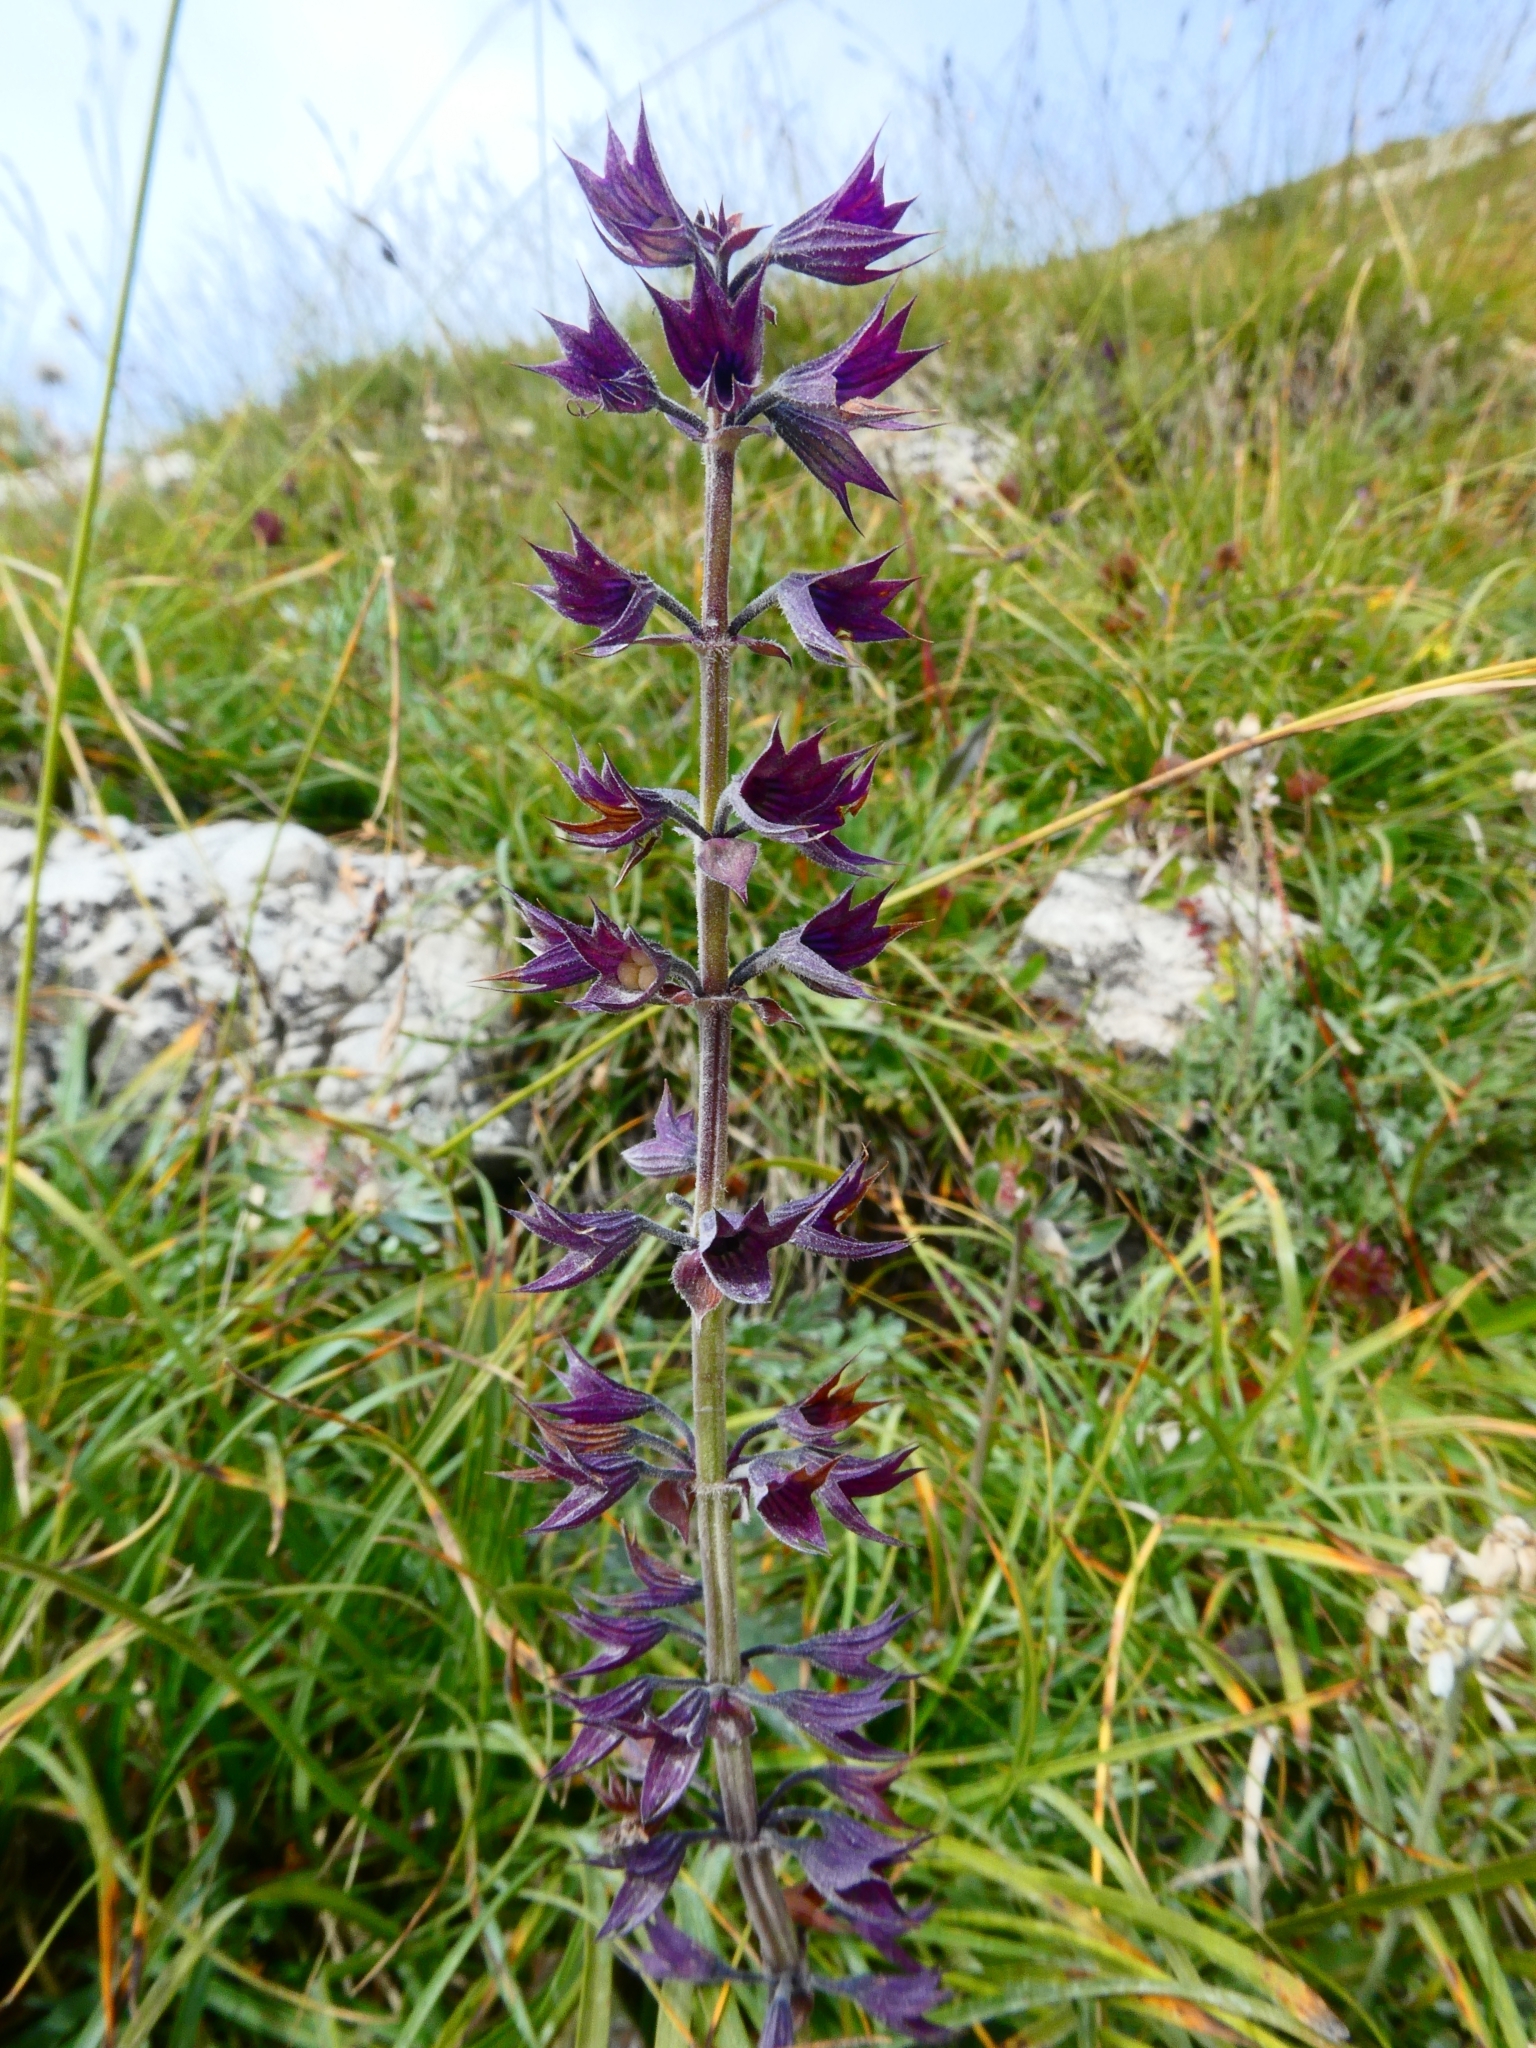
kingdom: Plantae
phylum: Tracheophyta
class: Magnoliopsida
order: Lamiales
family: Lamiaceae
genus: Horminum
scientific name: Horminum pyrenaicum
